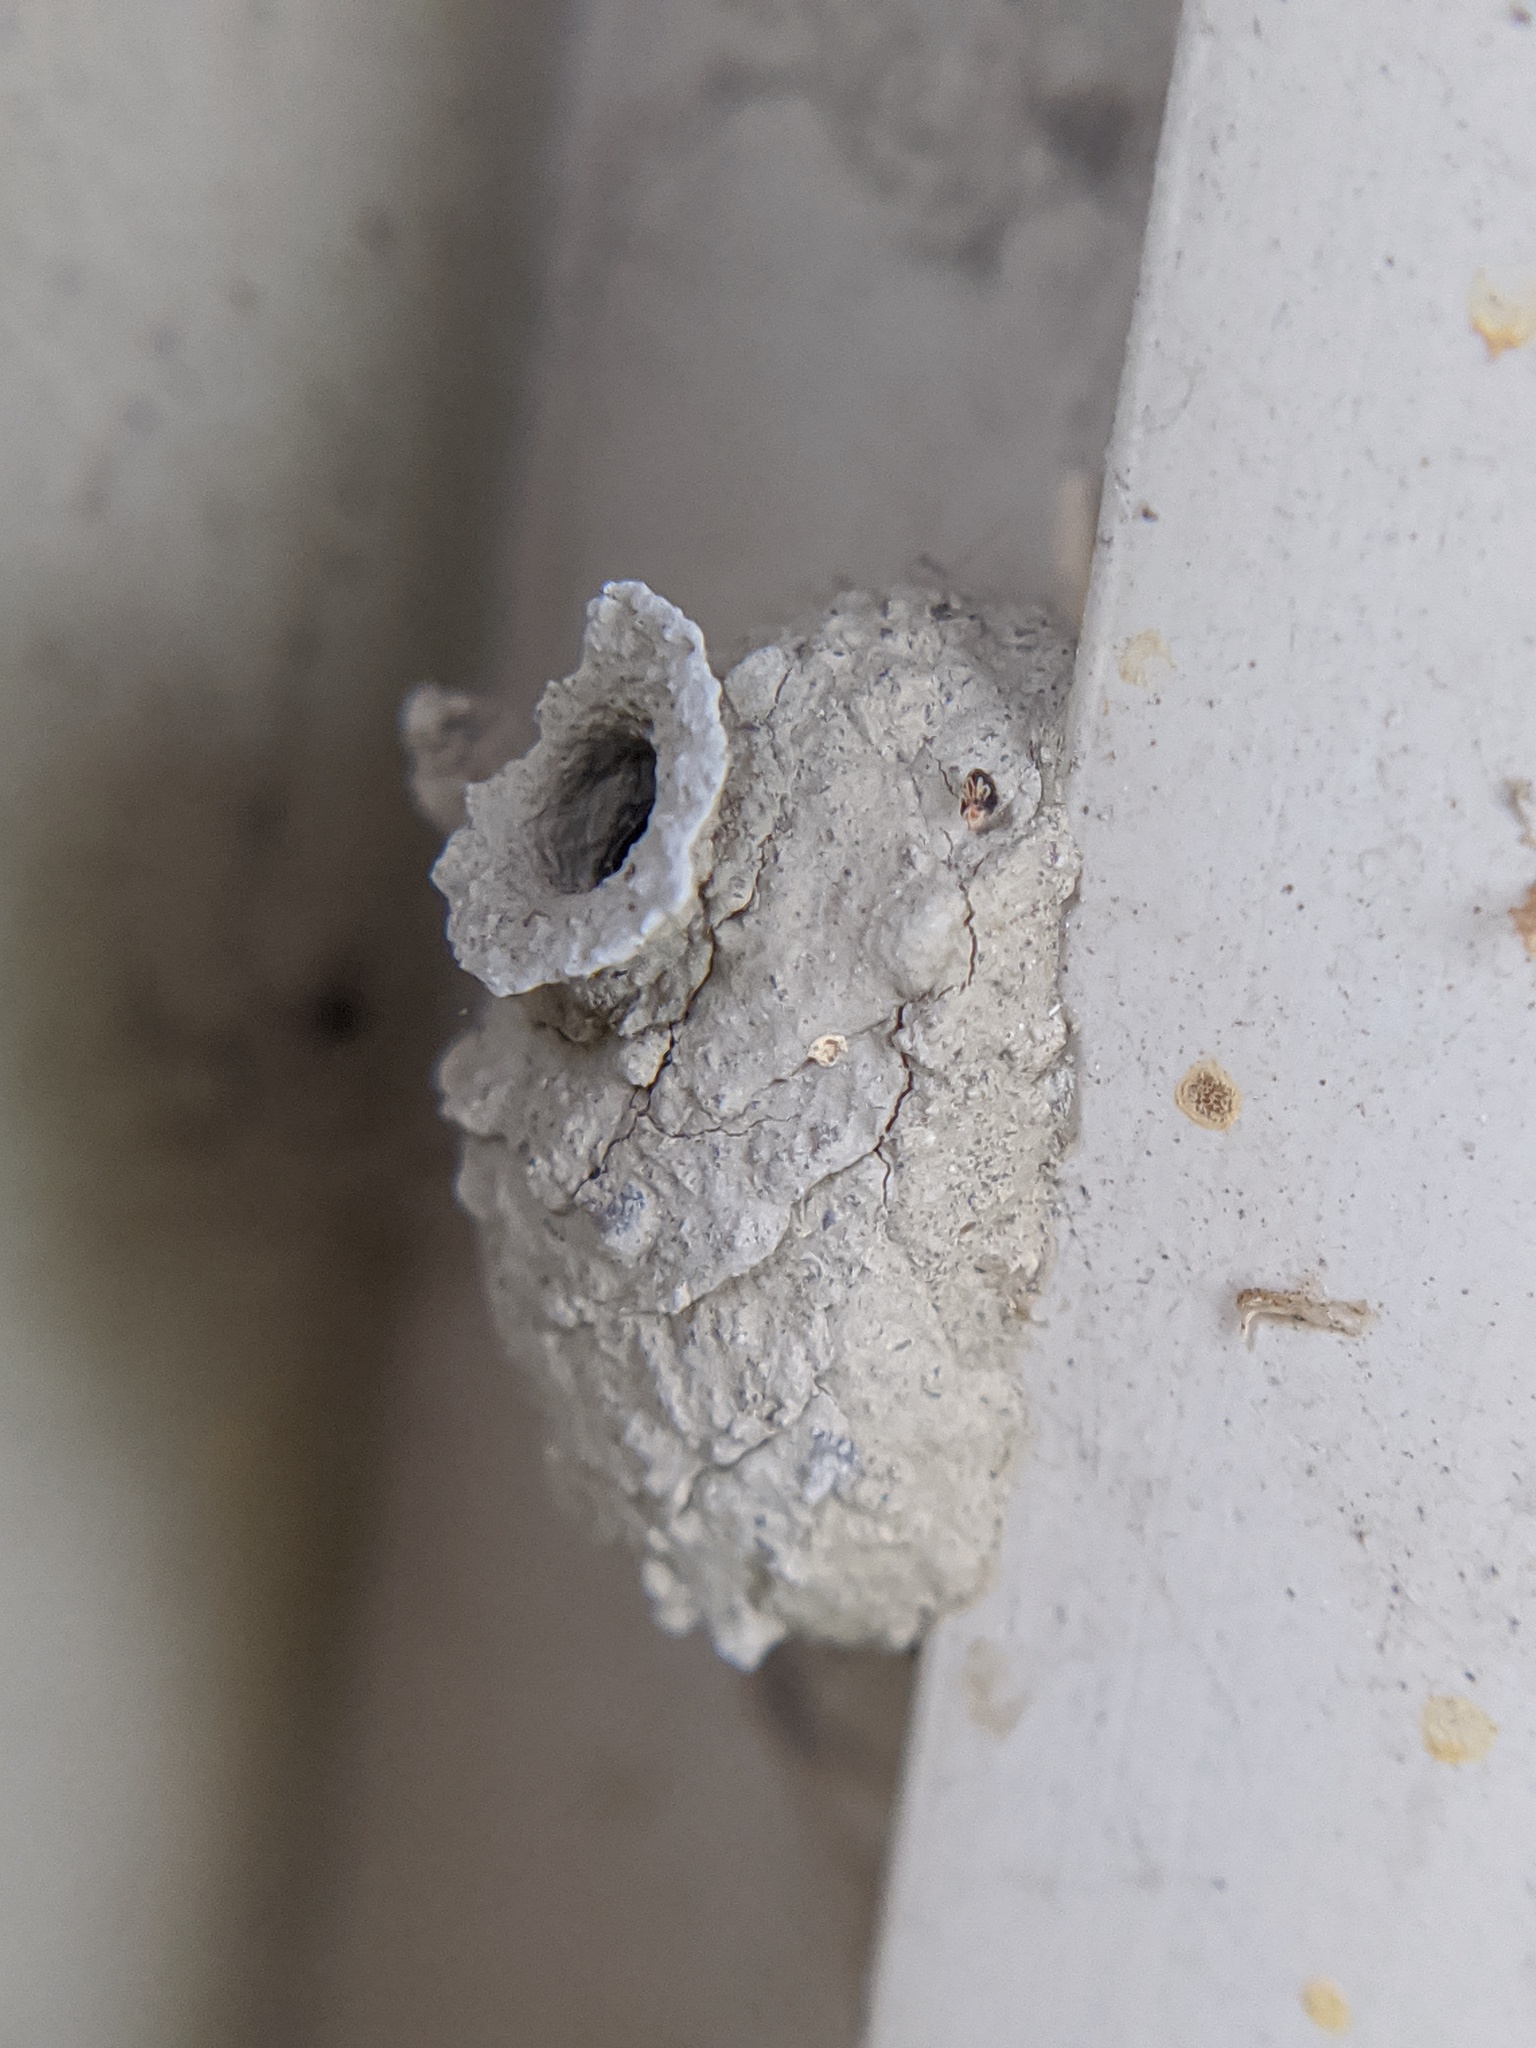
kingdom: Animalia
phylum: Arthropoda
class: Insecta
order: Hymenoptera
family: Vespidae
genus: Eumenes
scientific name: Eumenes
